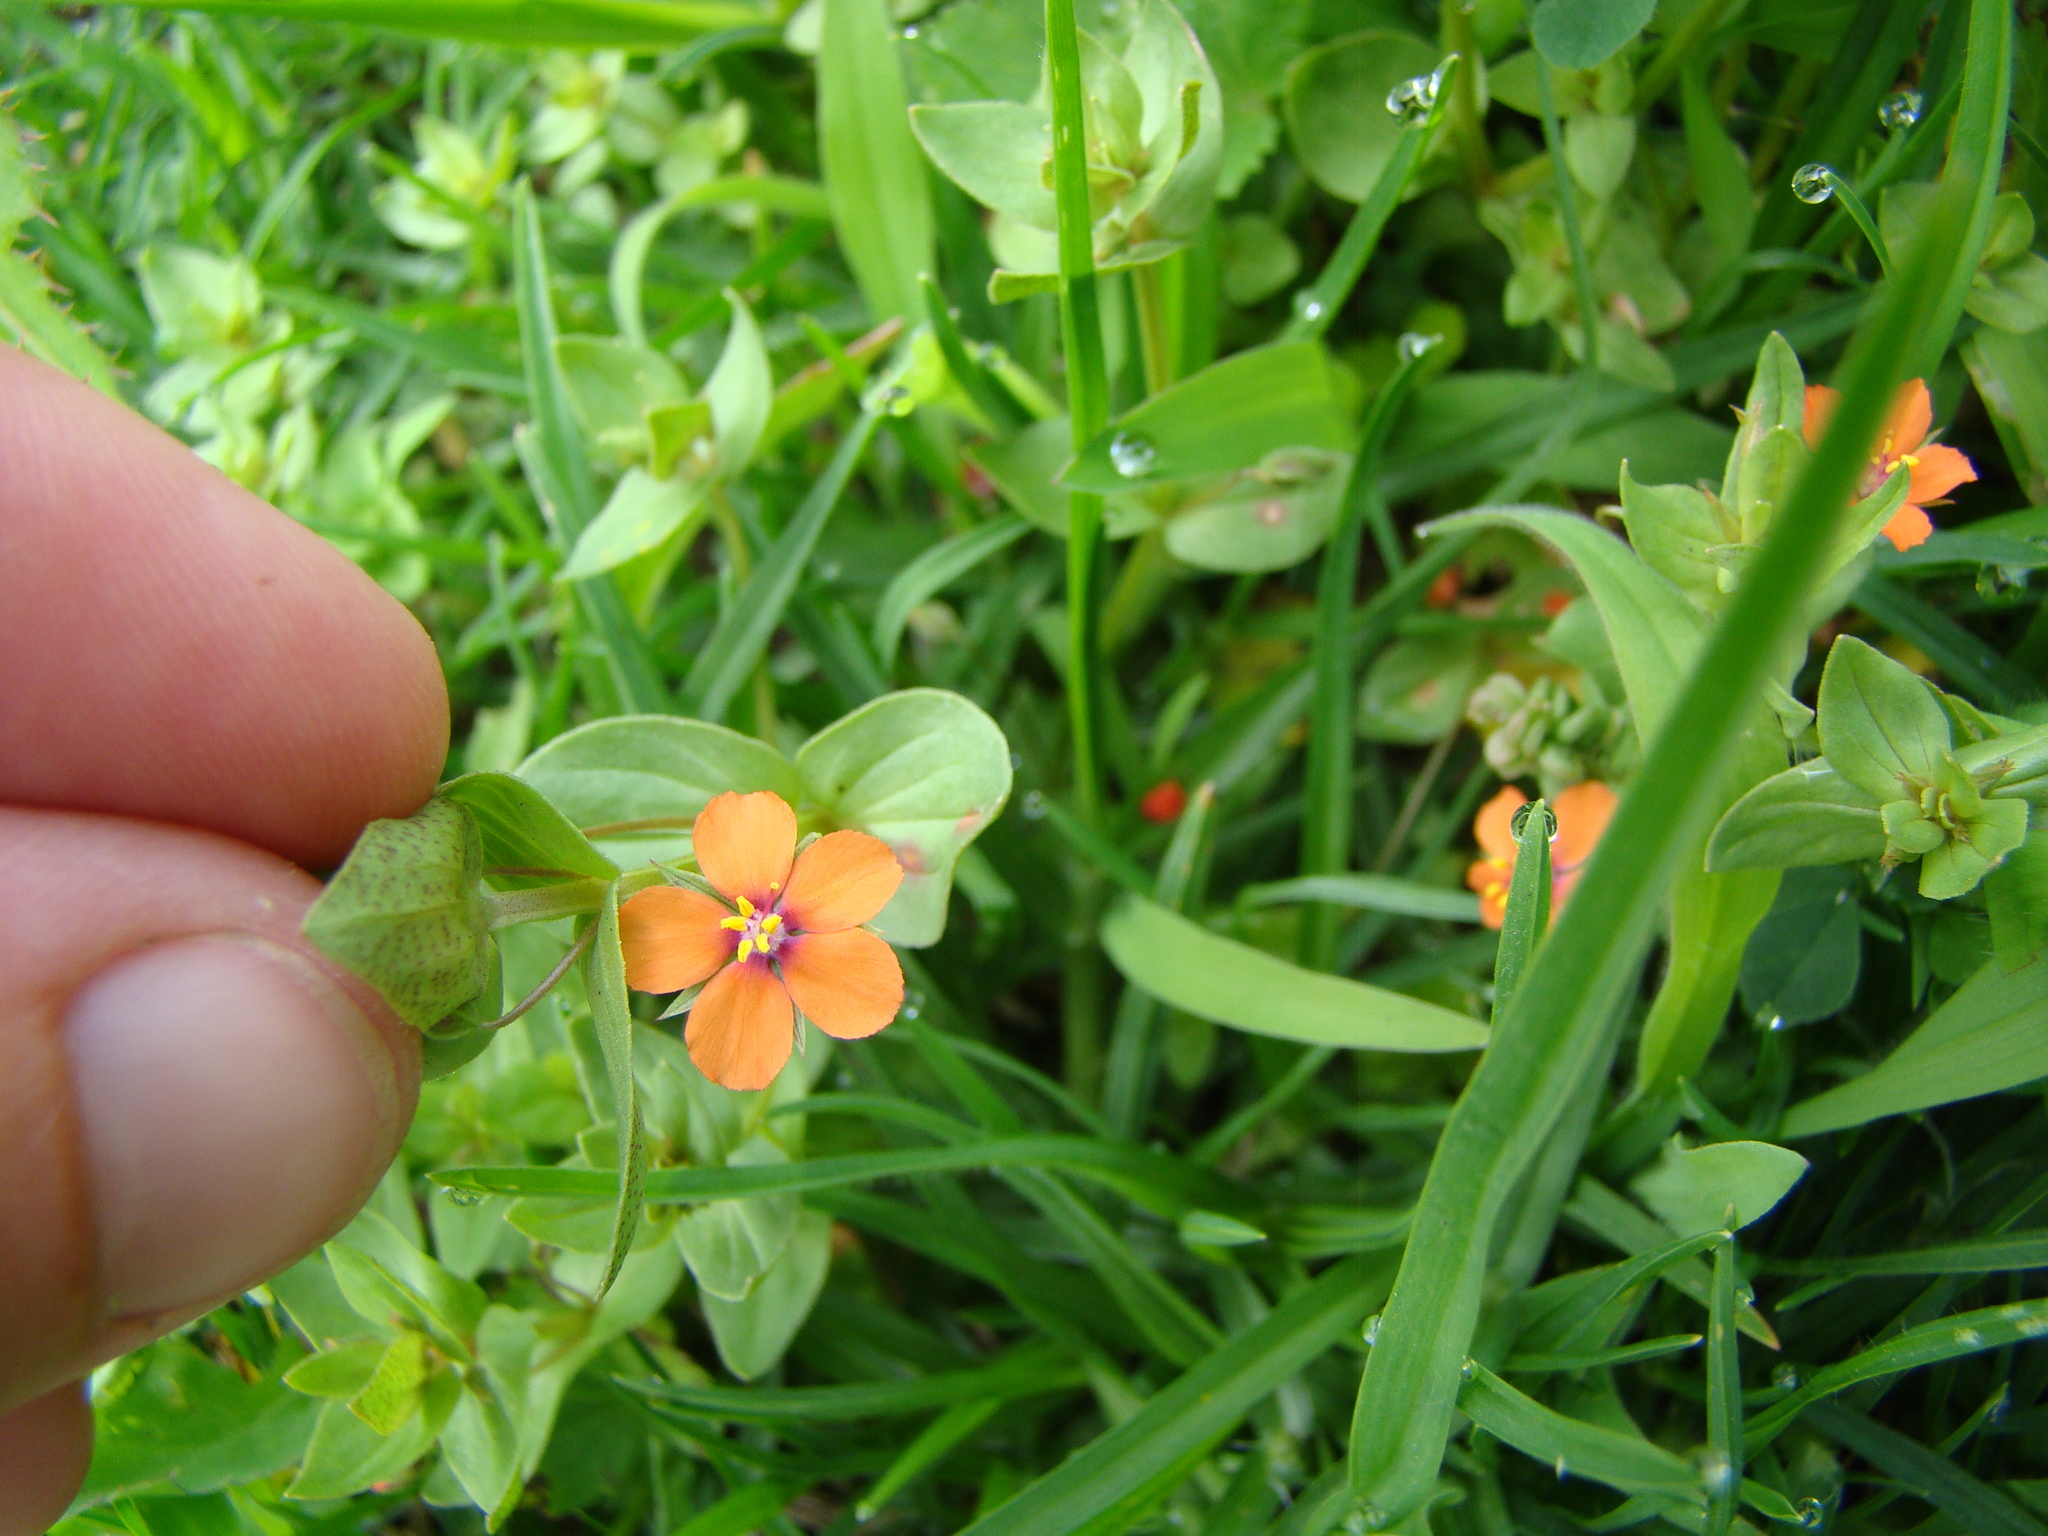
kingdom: Plantae
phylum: Tracheophyta
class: Magnoliopsida
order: Ericales
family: Primulaceae
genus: Lysimachia
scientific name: Lysimachia arvensis
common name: Scarlet pimpernel
